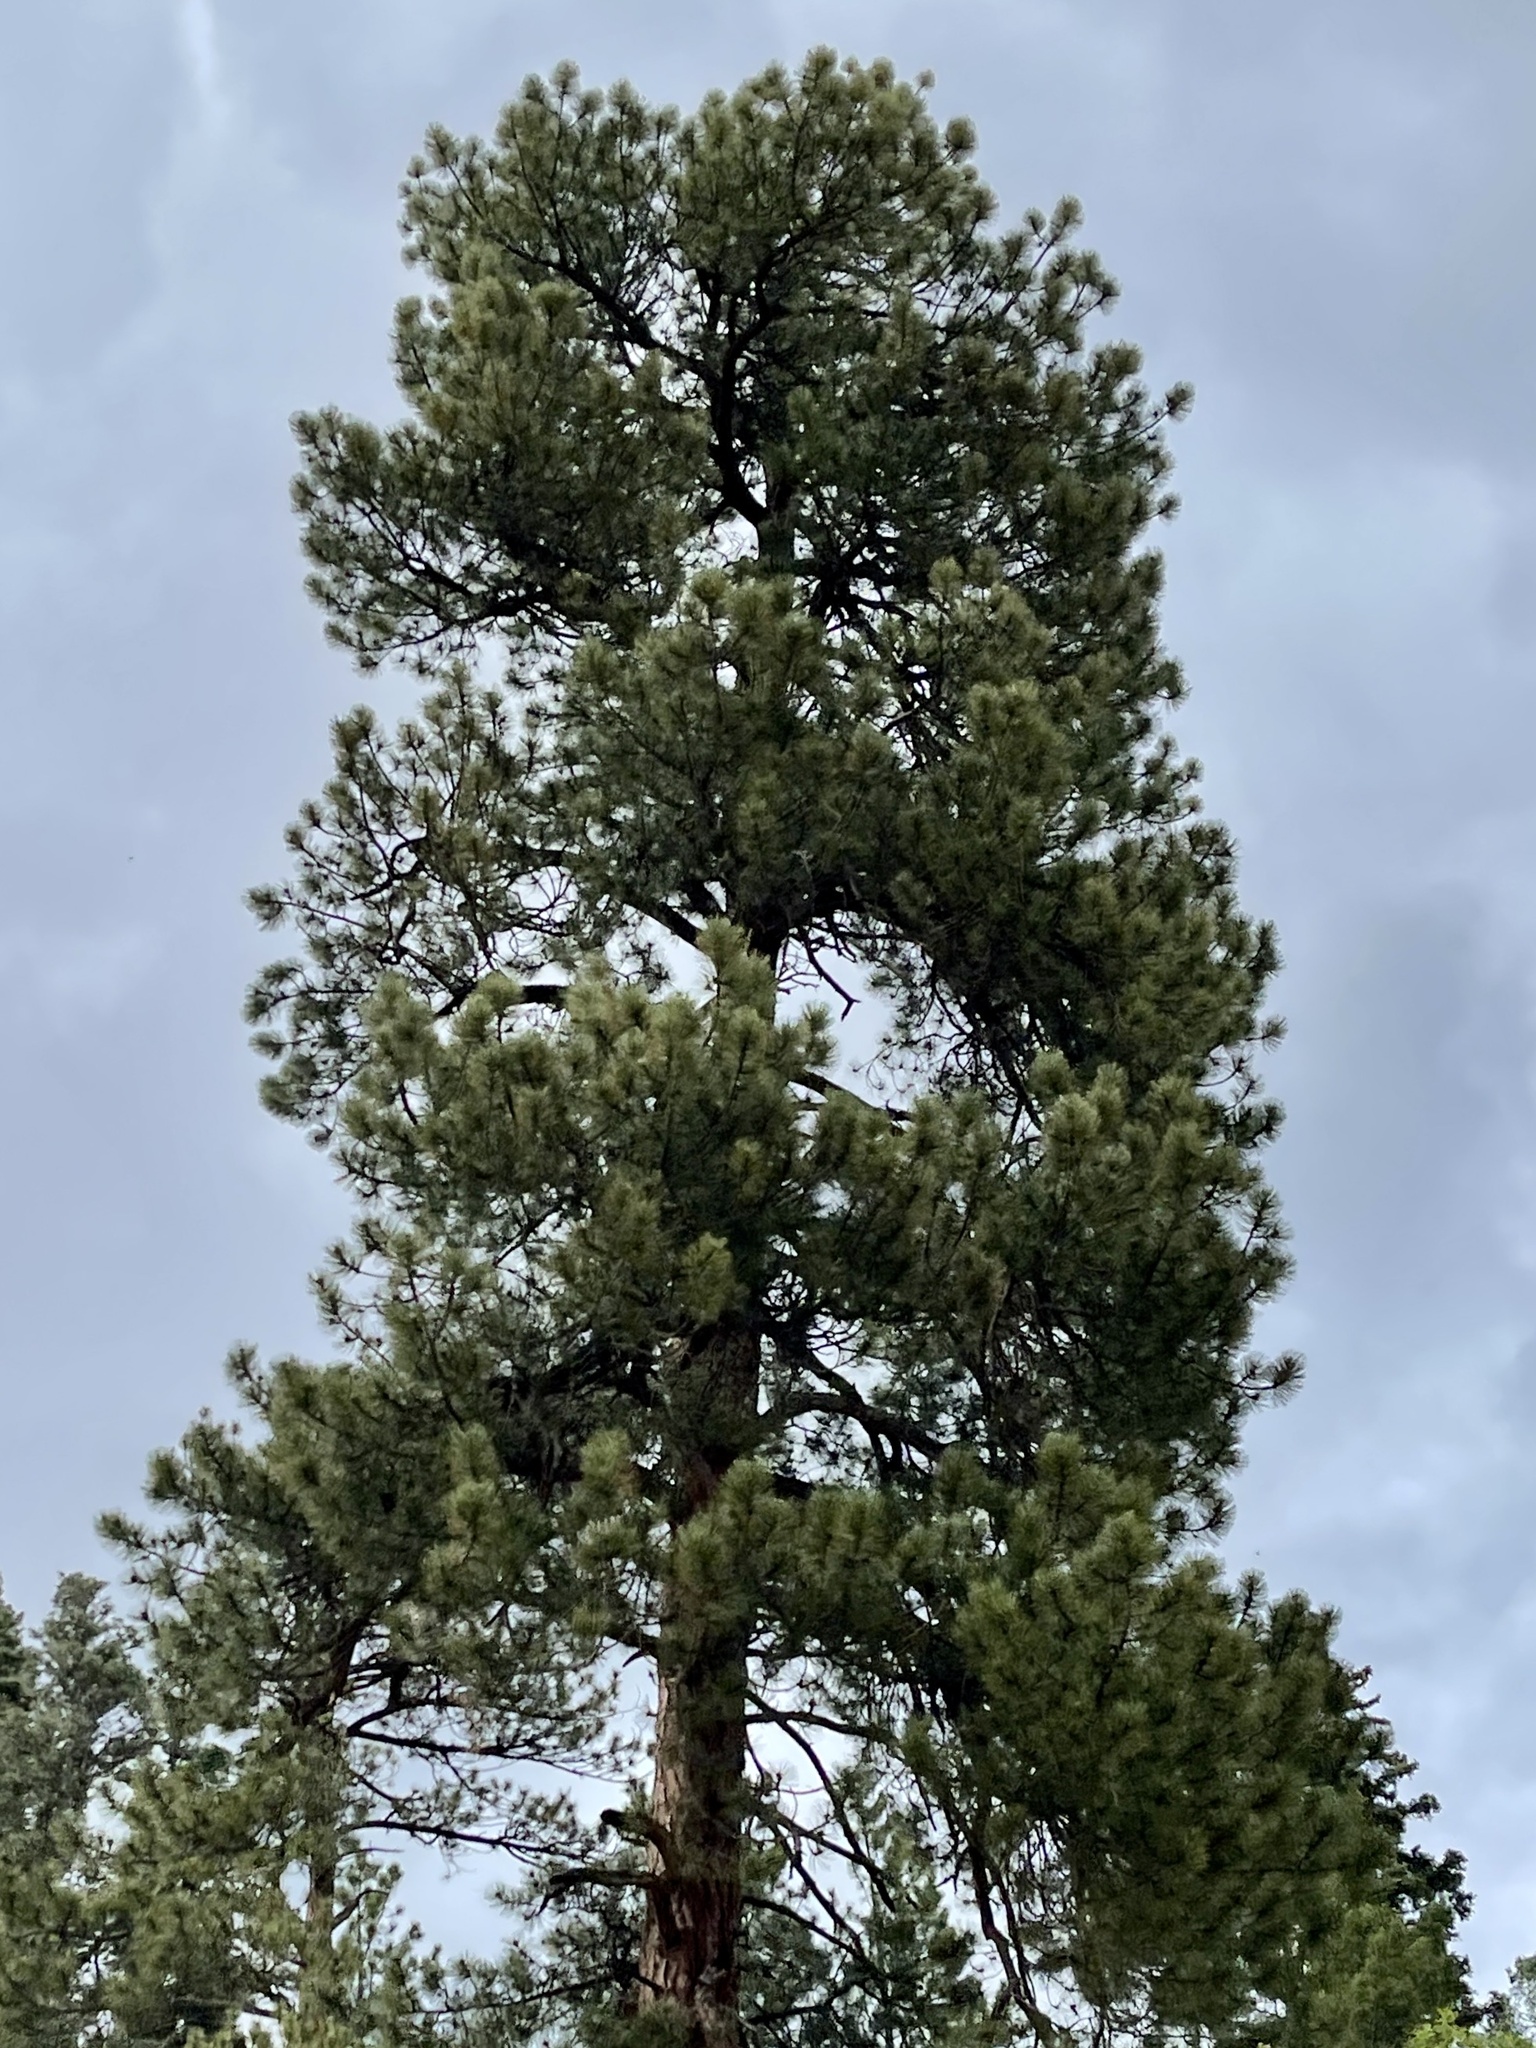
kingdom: Plantae
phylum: Tracheophyta
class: Pinopsida
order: Pinales
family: Pinaceae
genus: Pinus
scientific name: Pinus ponderosa
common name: Western yellow-pine
